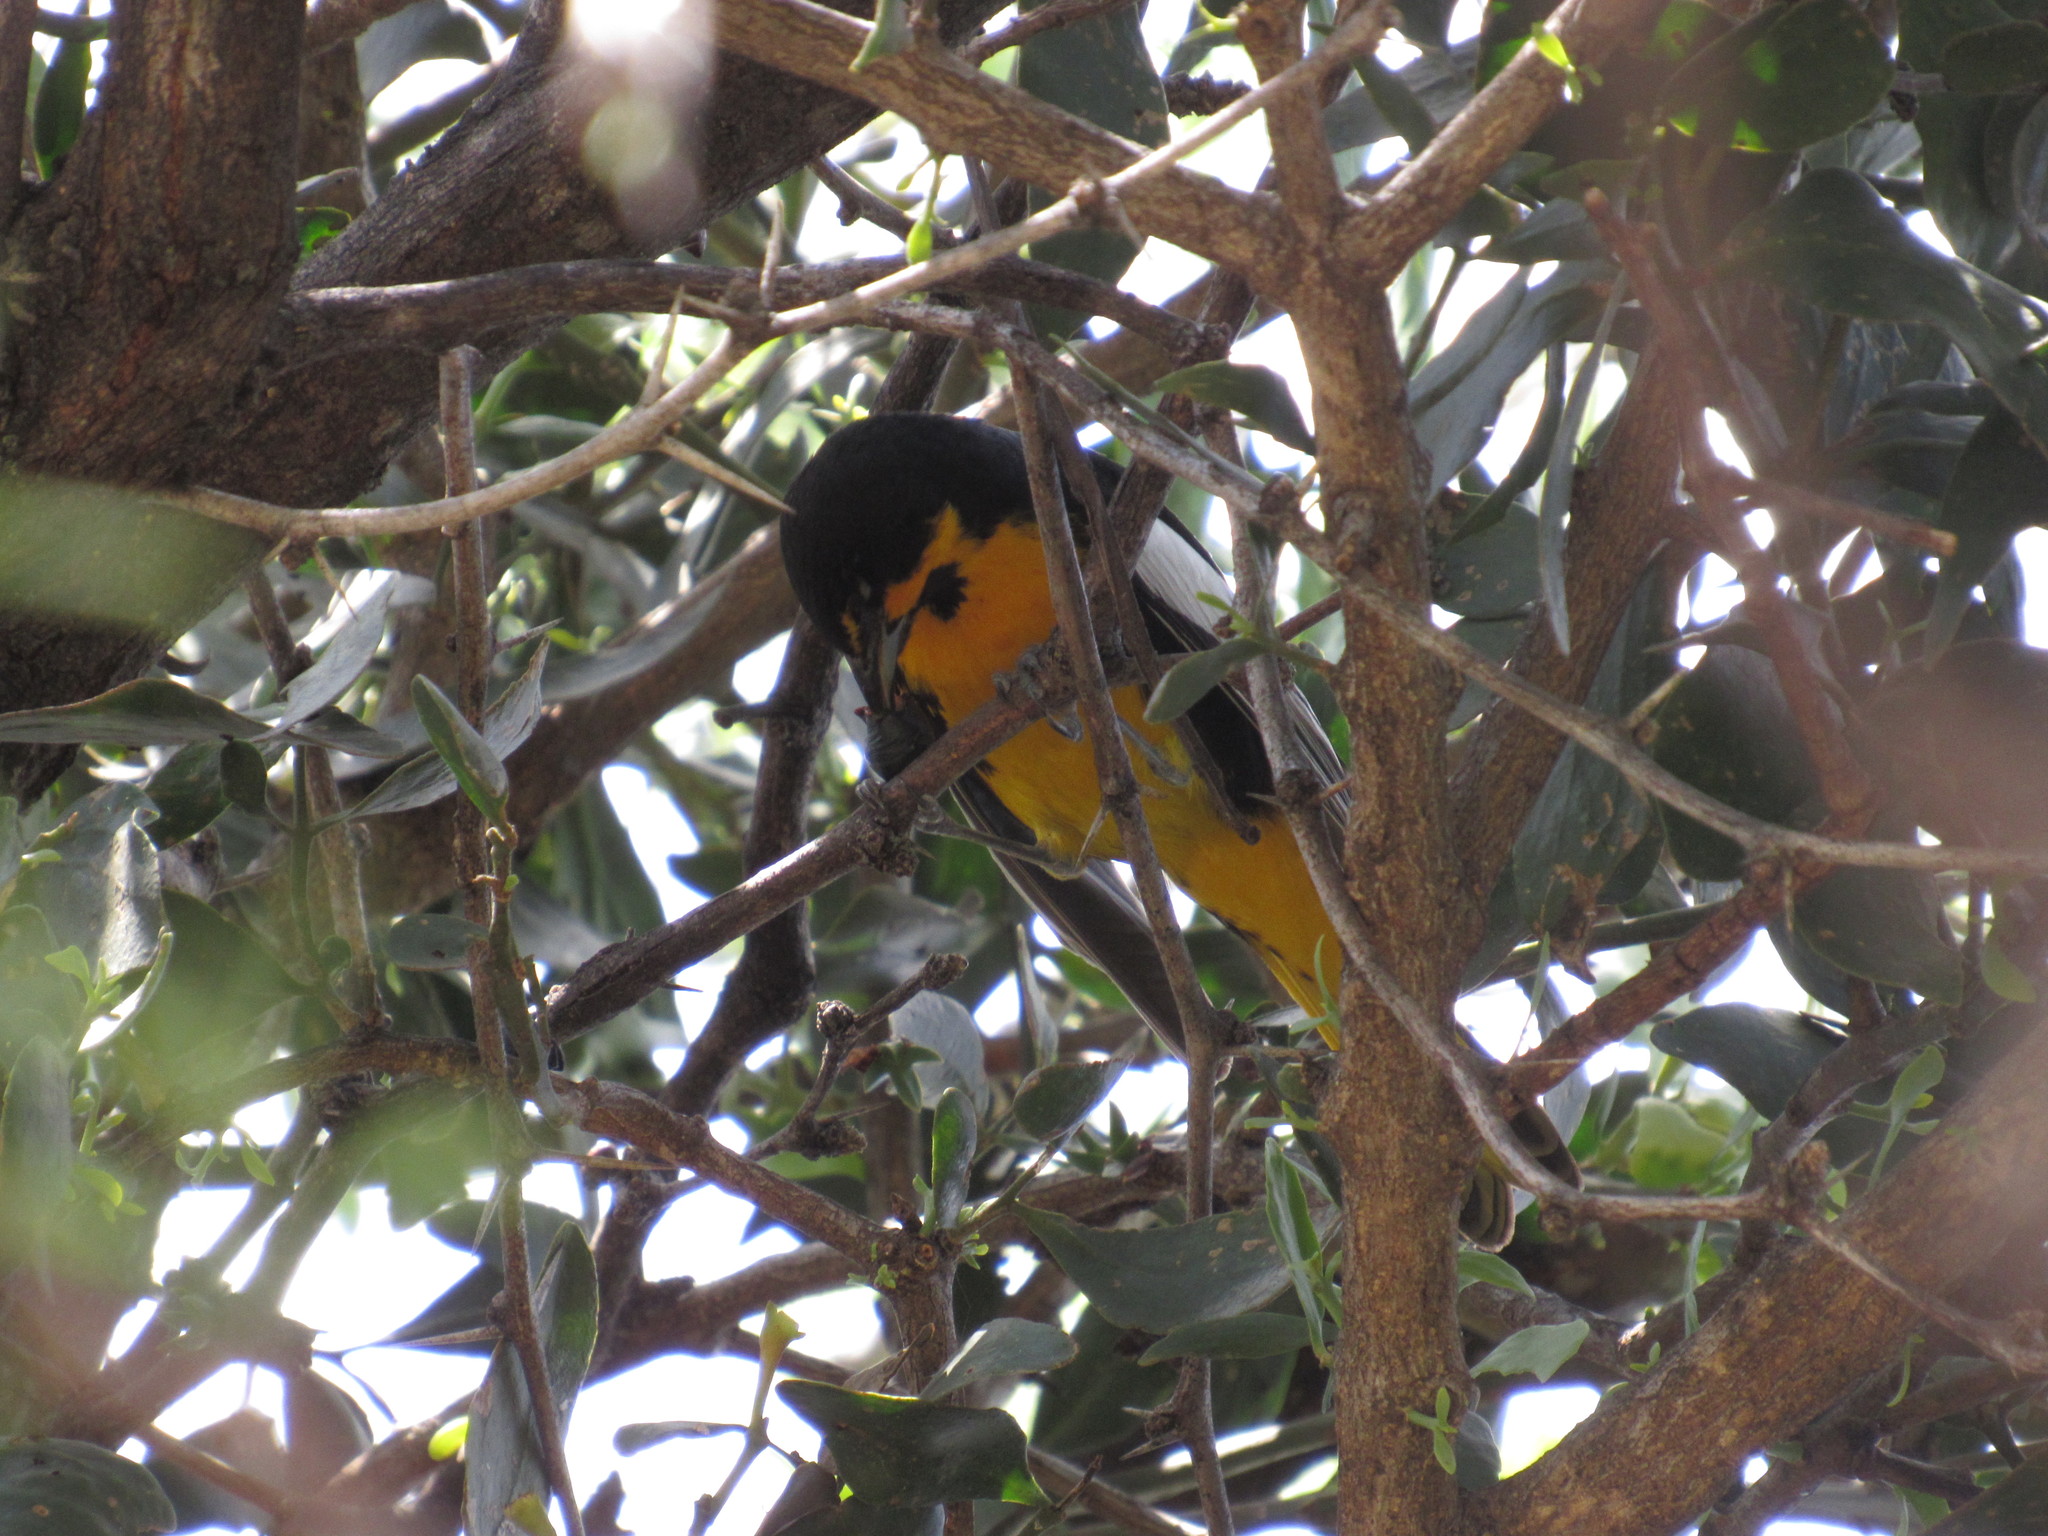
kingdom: Animalia
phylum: Chordata
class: Aves
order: Passeriformes
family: Icteridae
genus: Icterus
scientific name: Icterus abeillei
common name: Black-backed oriole
